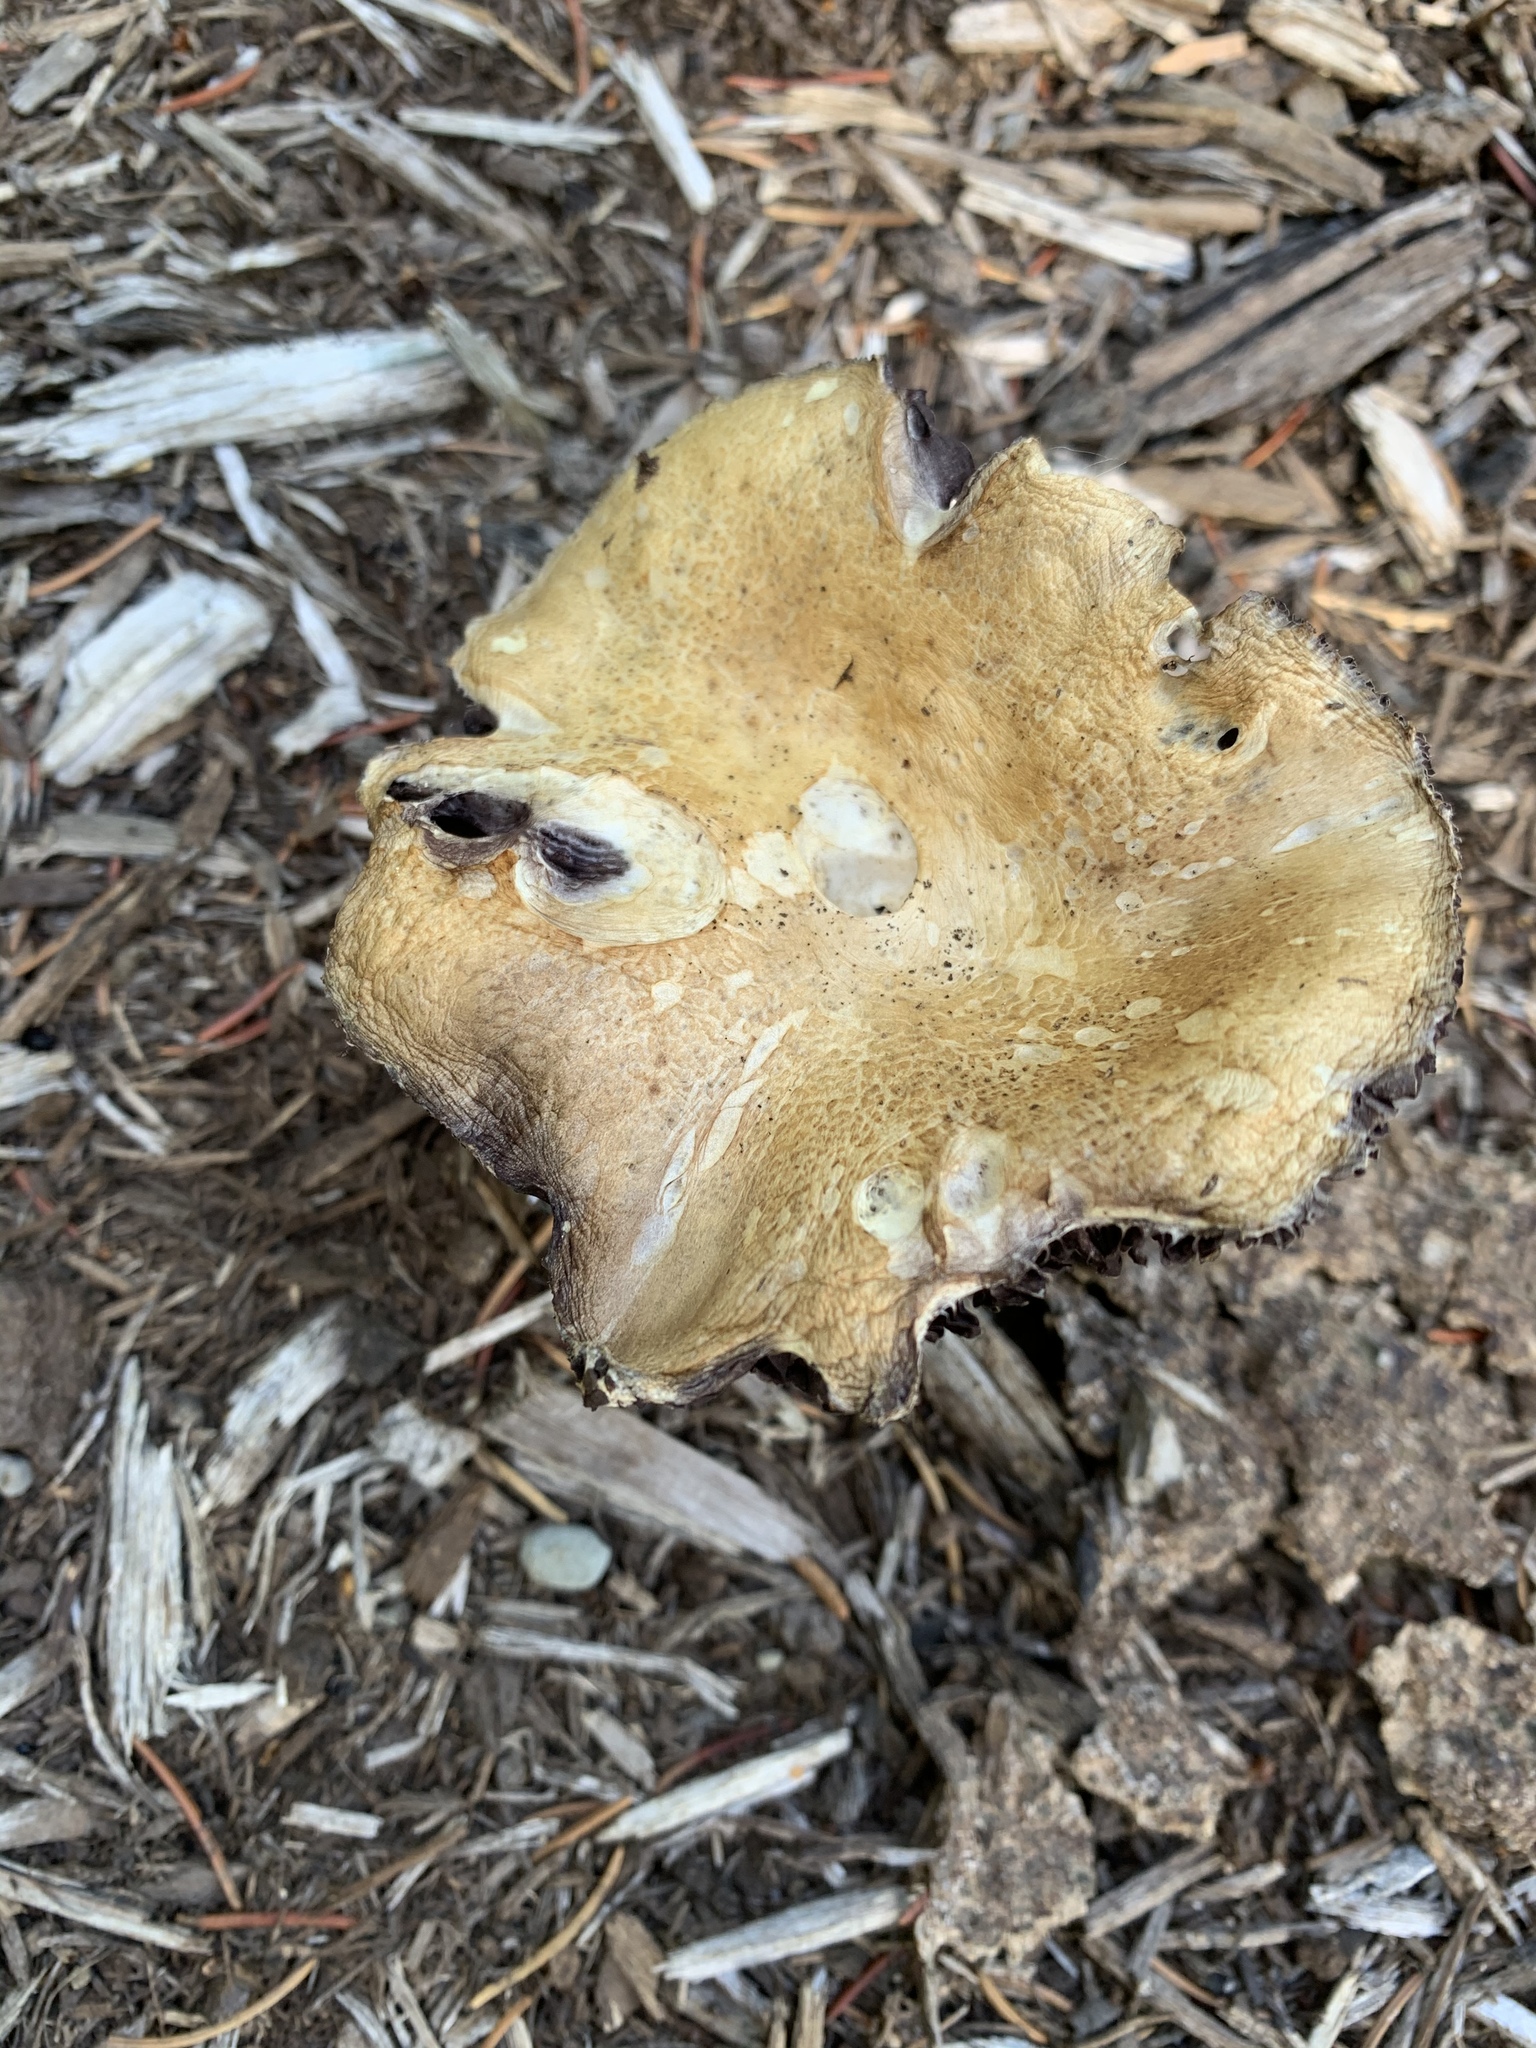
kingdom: Fungi
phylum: Basidiomycota
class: Agaricomycetes
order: Agaricales
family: Strophariaceae
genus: Stropharia
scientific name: Stropharia rugosoannulata
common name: Wine roundhead
